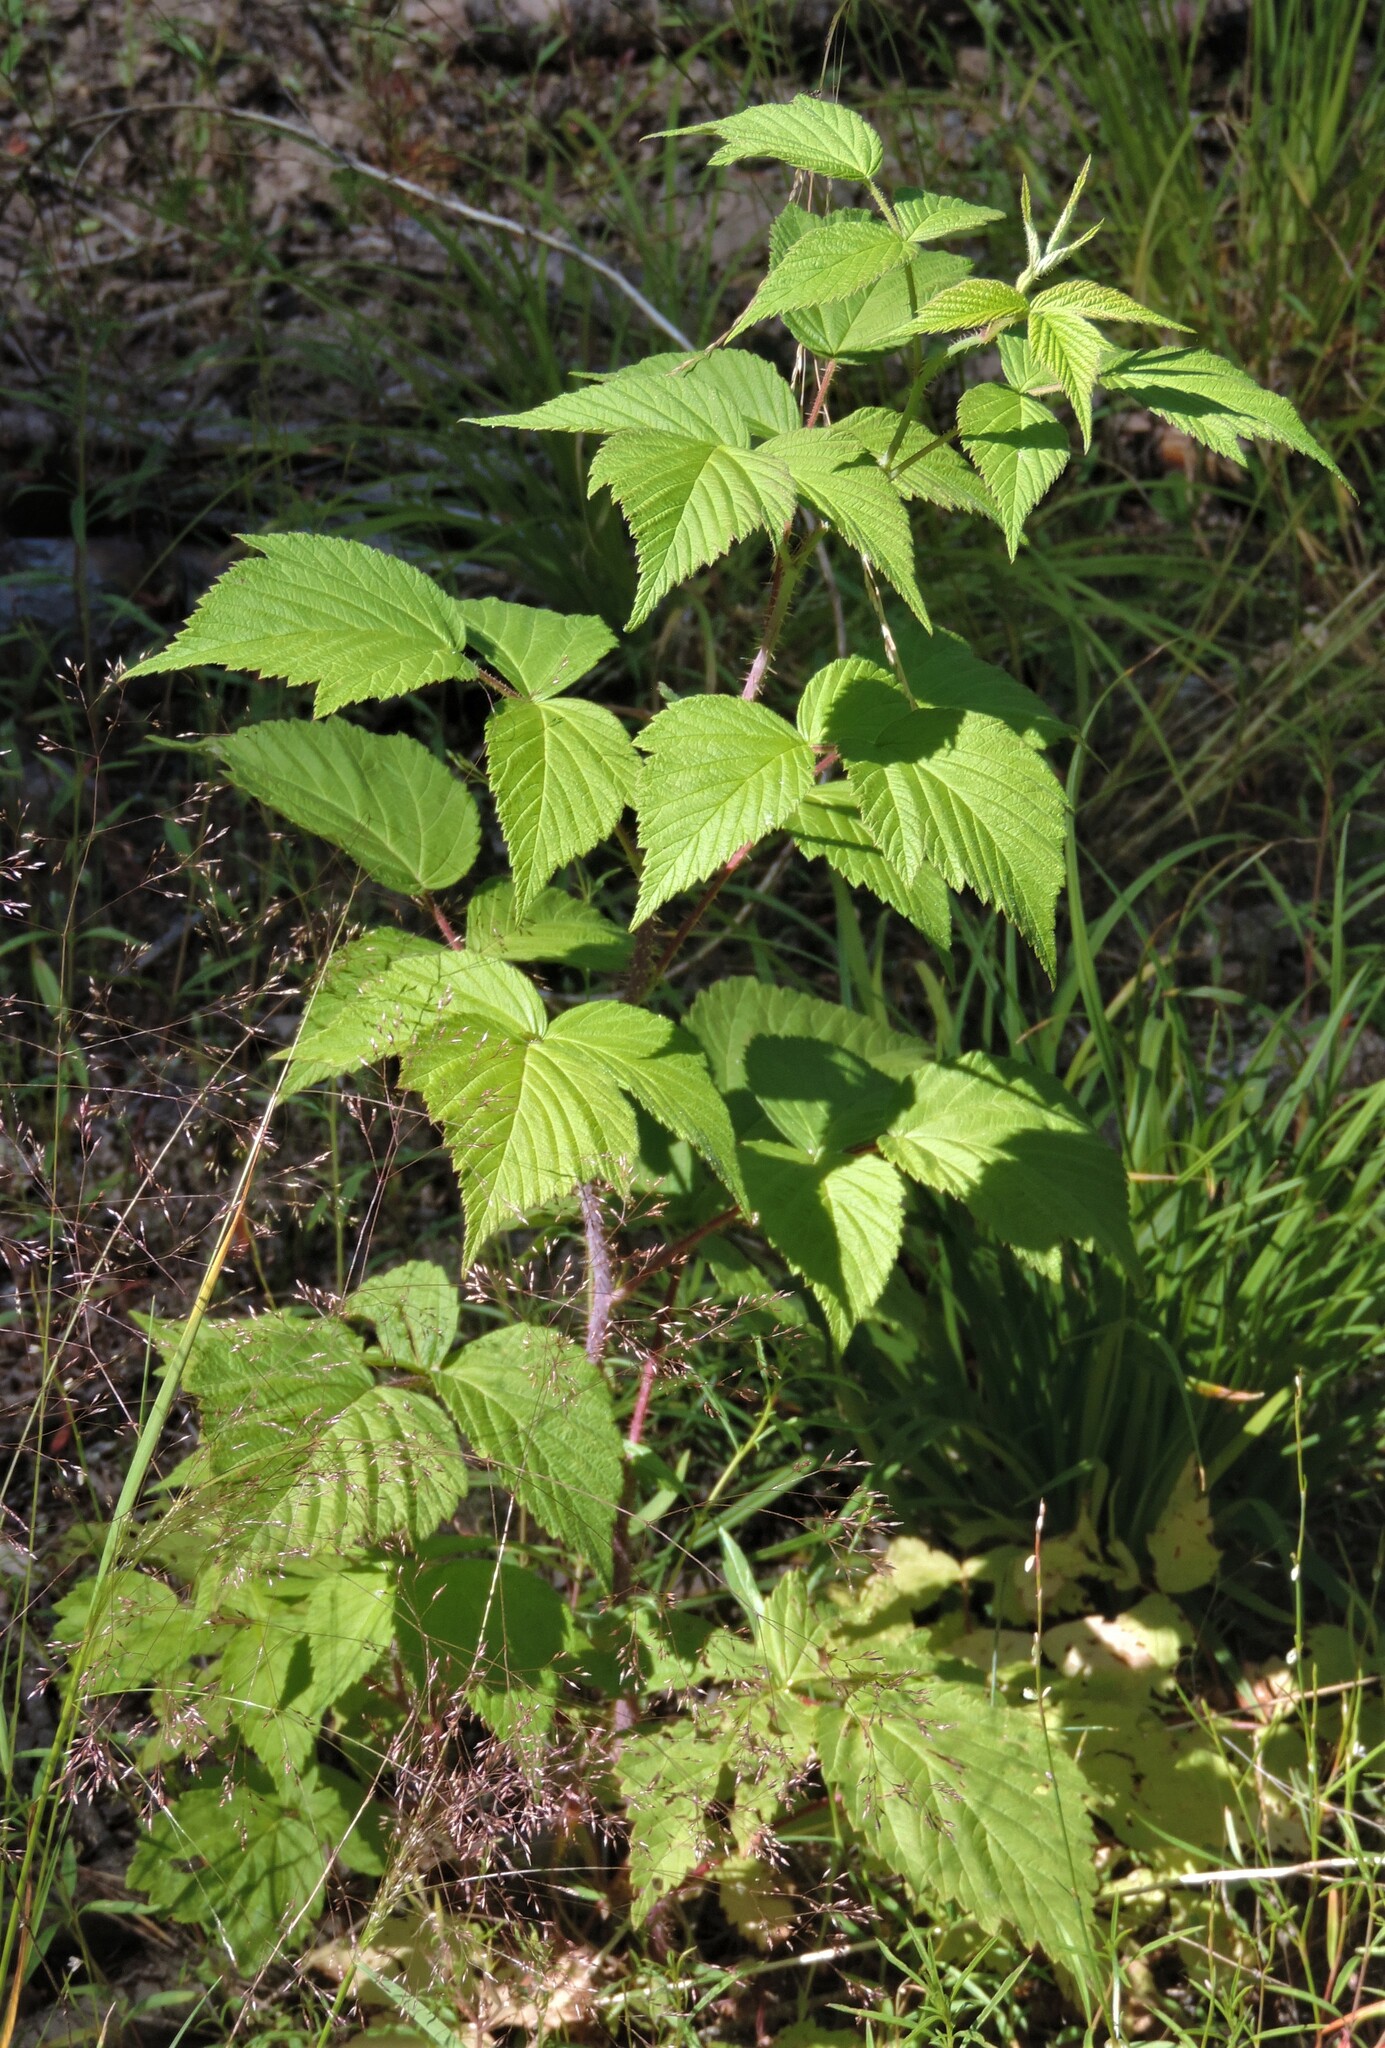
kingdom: Plantae
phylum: Tracheophyta
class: Magnoliopsida
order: Rosales
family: Rosaceae
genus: Rubus
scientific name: Rubus idaeus
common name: Raspberry
